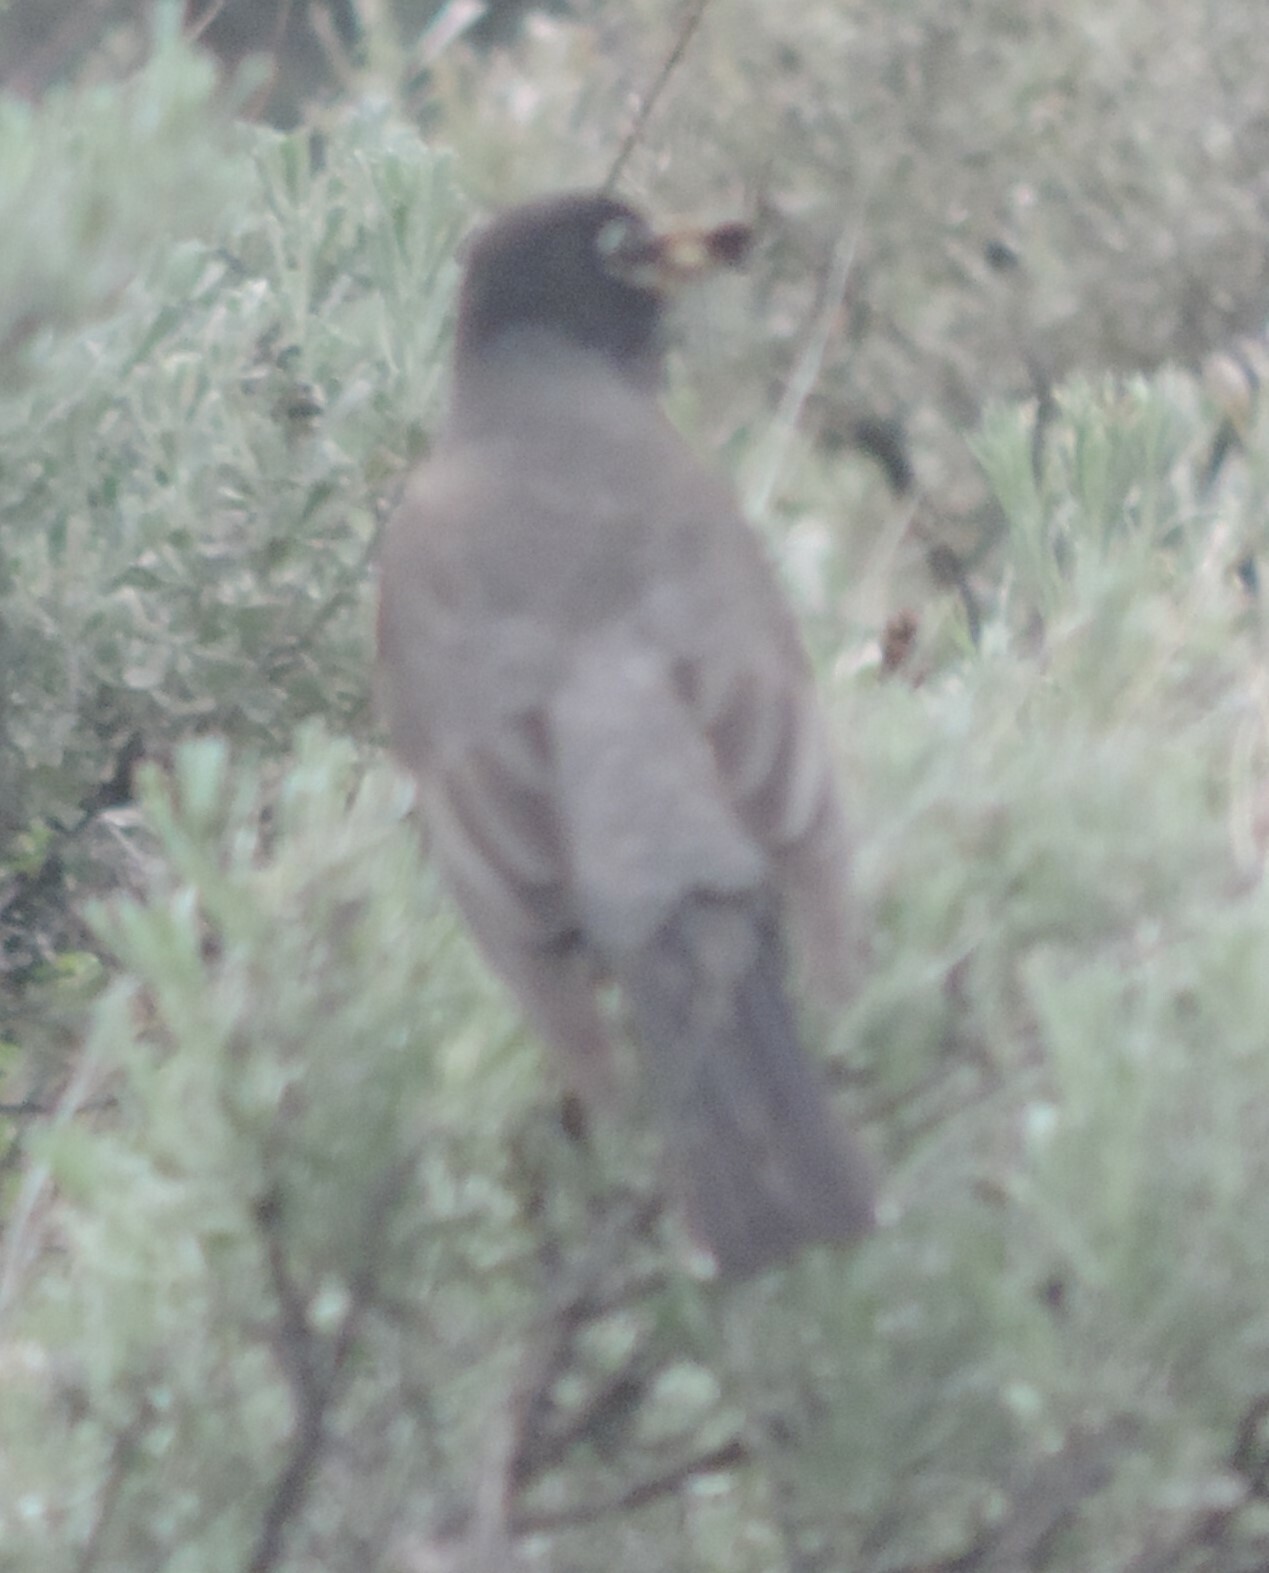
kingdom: Animalia
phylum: Chordata
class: Aves
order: Passeriformes
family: Turdidae
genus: Turdus
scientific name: Turdus migratorius
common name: American robin
